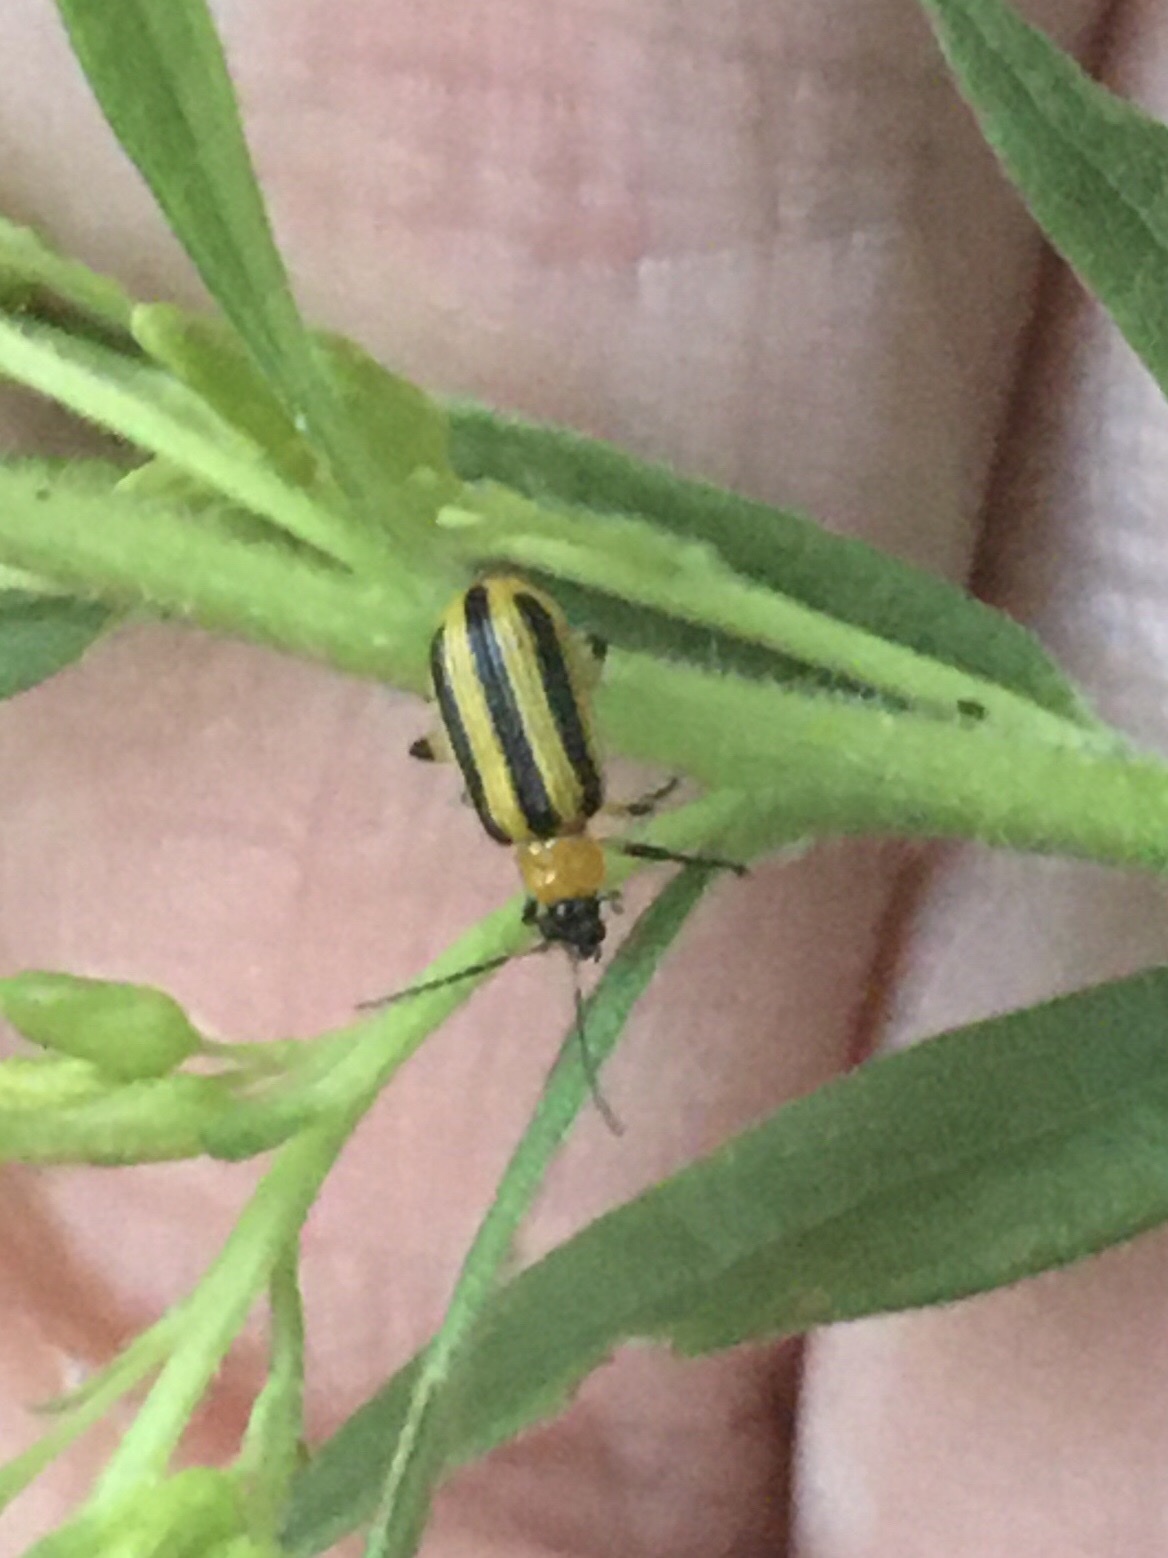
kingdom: Animalia
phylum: Arthropoda
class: Insecta
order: Coleoptera
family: Chrysomelidae
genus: Acalymma
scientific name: Acalymma vittatum
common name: Striped cucumber beetle
